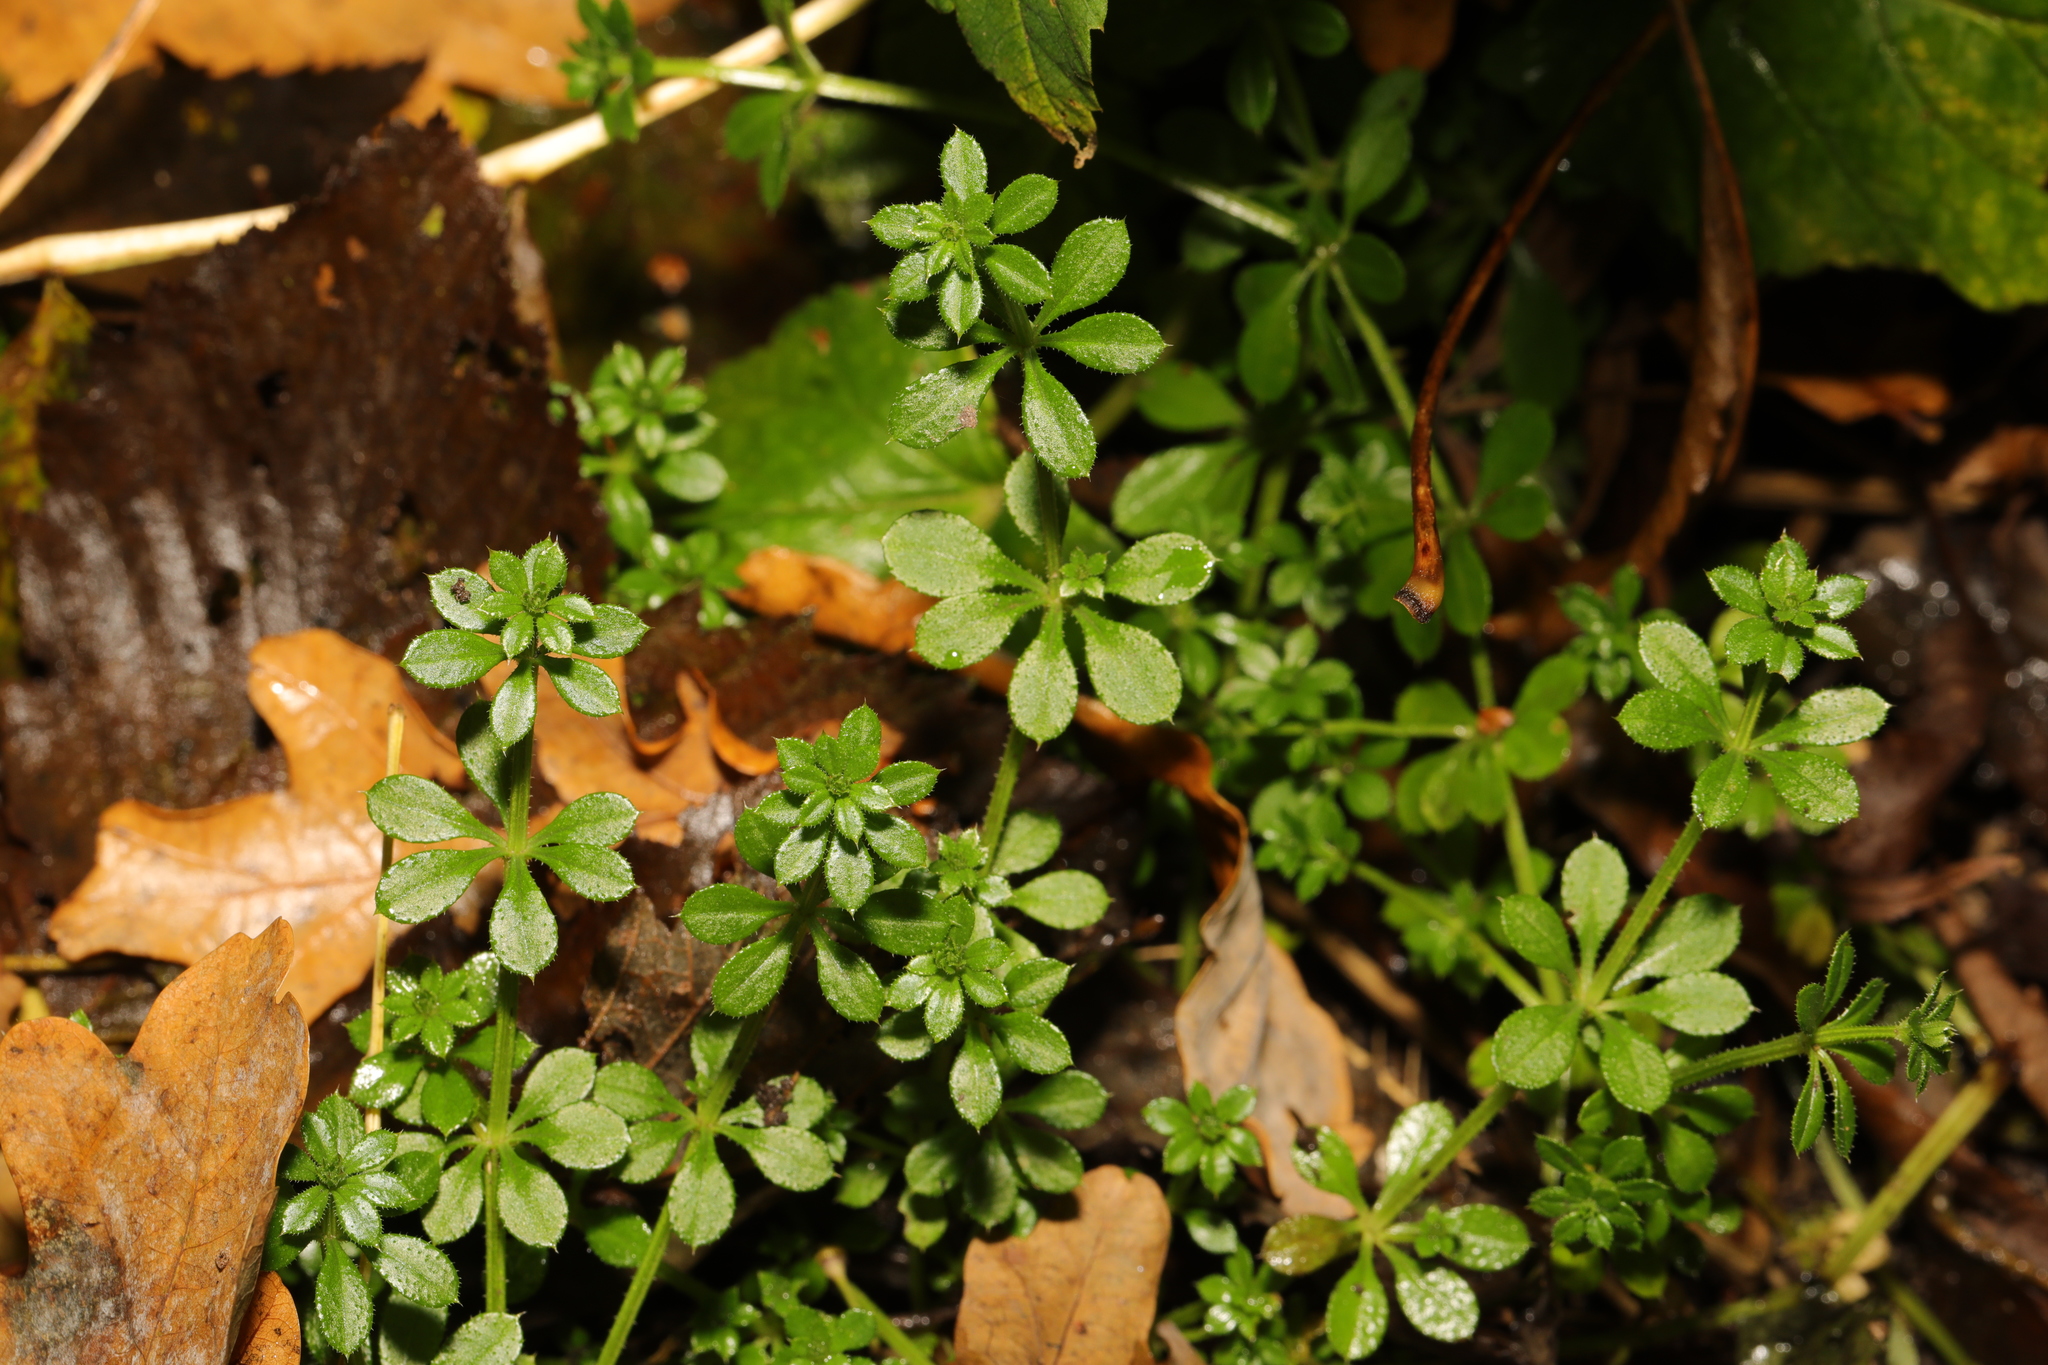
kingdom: Plantae
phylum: Tracheophyta
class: Magnoliopsida
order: Gentianales
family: Rubiaceae
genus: Galium
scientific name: Galium aparine
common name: Cleavers
